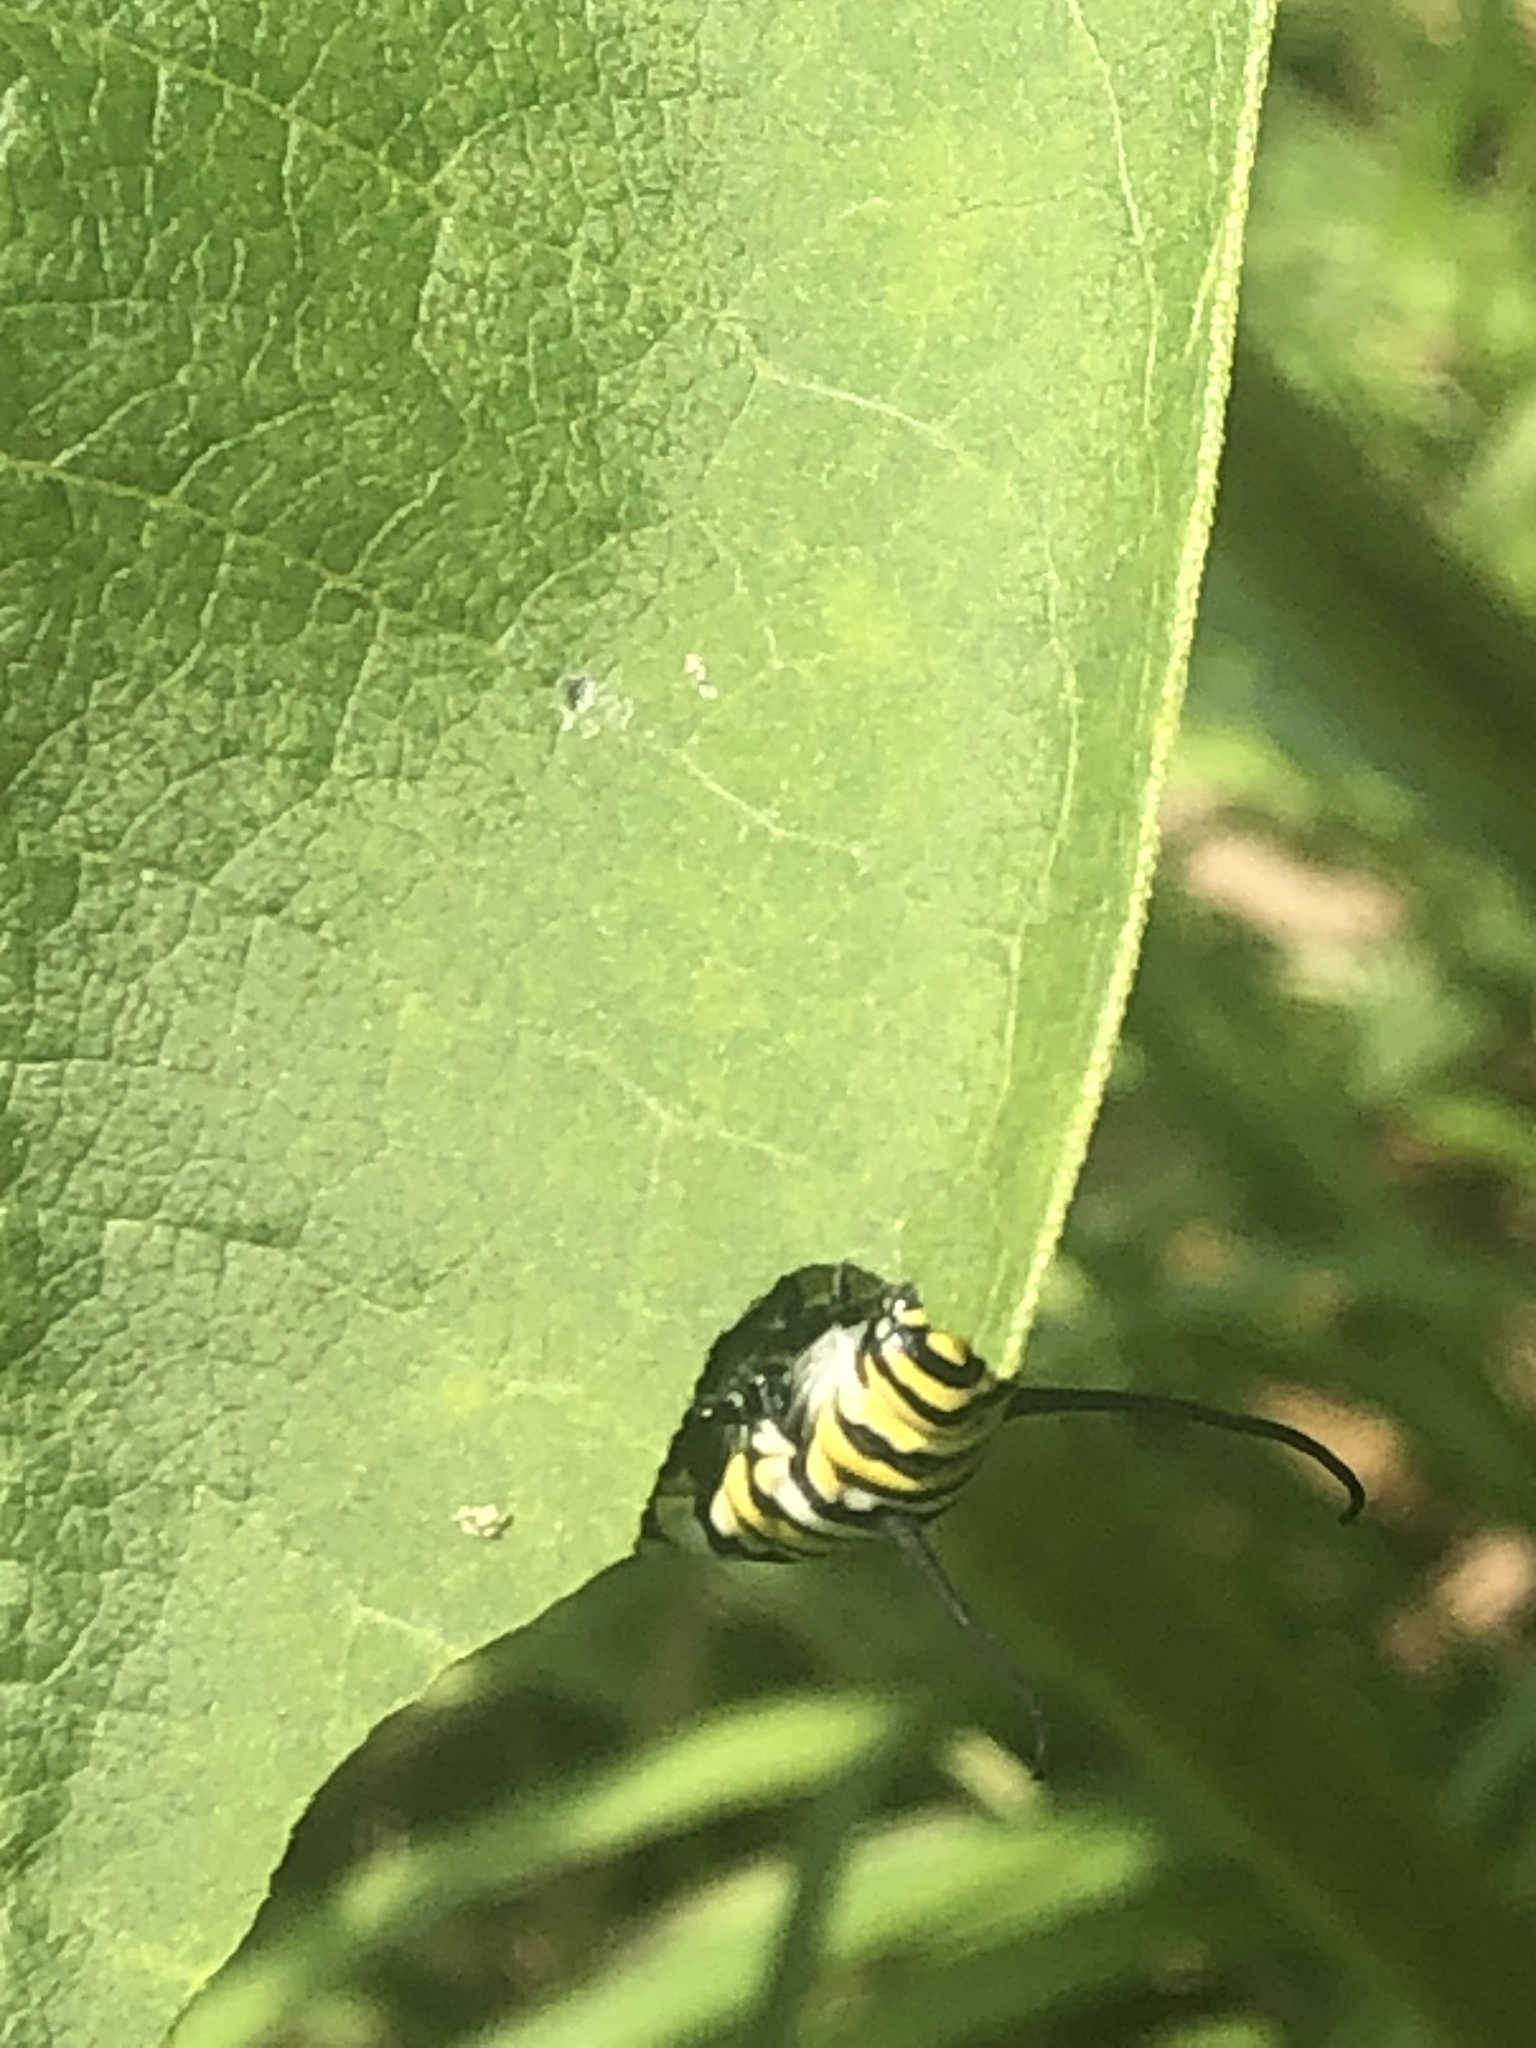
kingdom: Animalia
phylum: Arthropoda
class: Insecta
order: Lepidoptera
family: Nymphalidae
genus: Danaus
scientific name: Danaus plexippus
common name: Monarch
